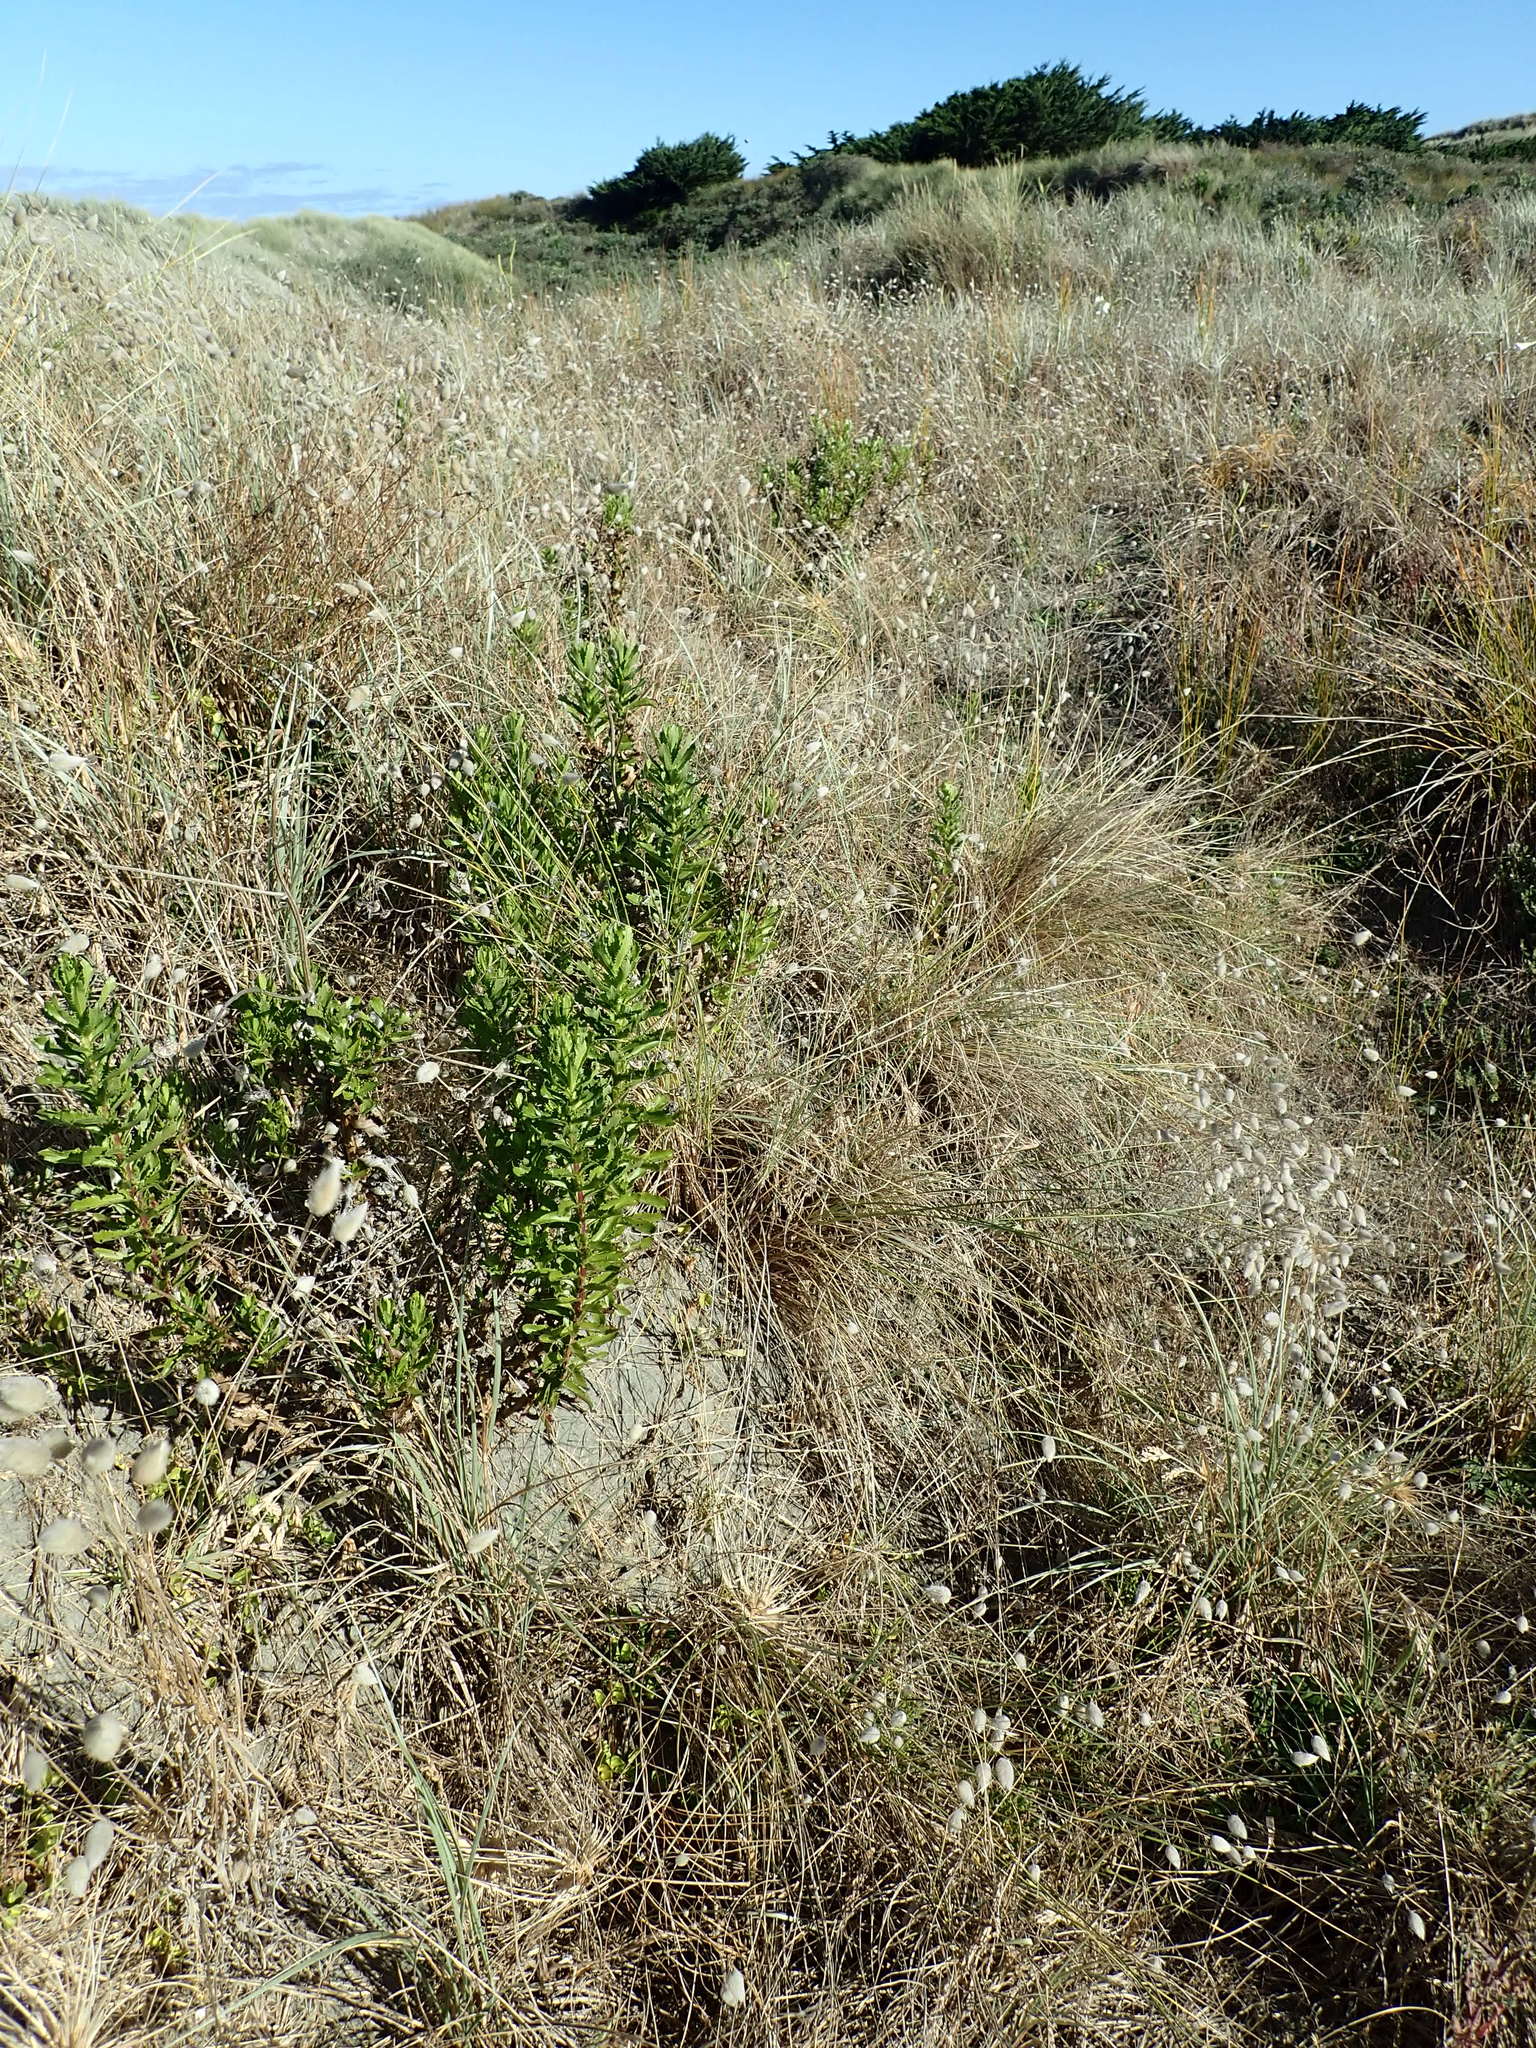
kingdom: Plantae
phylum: Tracheophyta
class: Magnoliopsida
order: Asterales
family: Asteraceae
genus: Senecio
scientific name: Senecio glastifolius
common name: Woad-leaved ragwort
